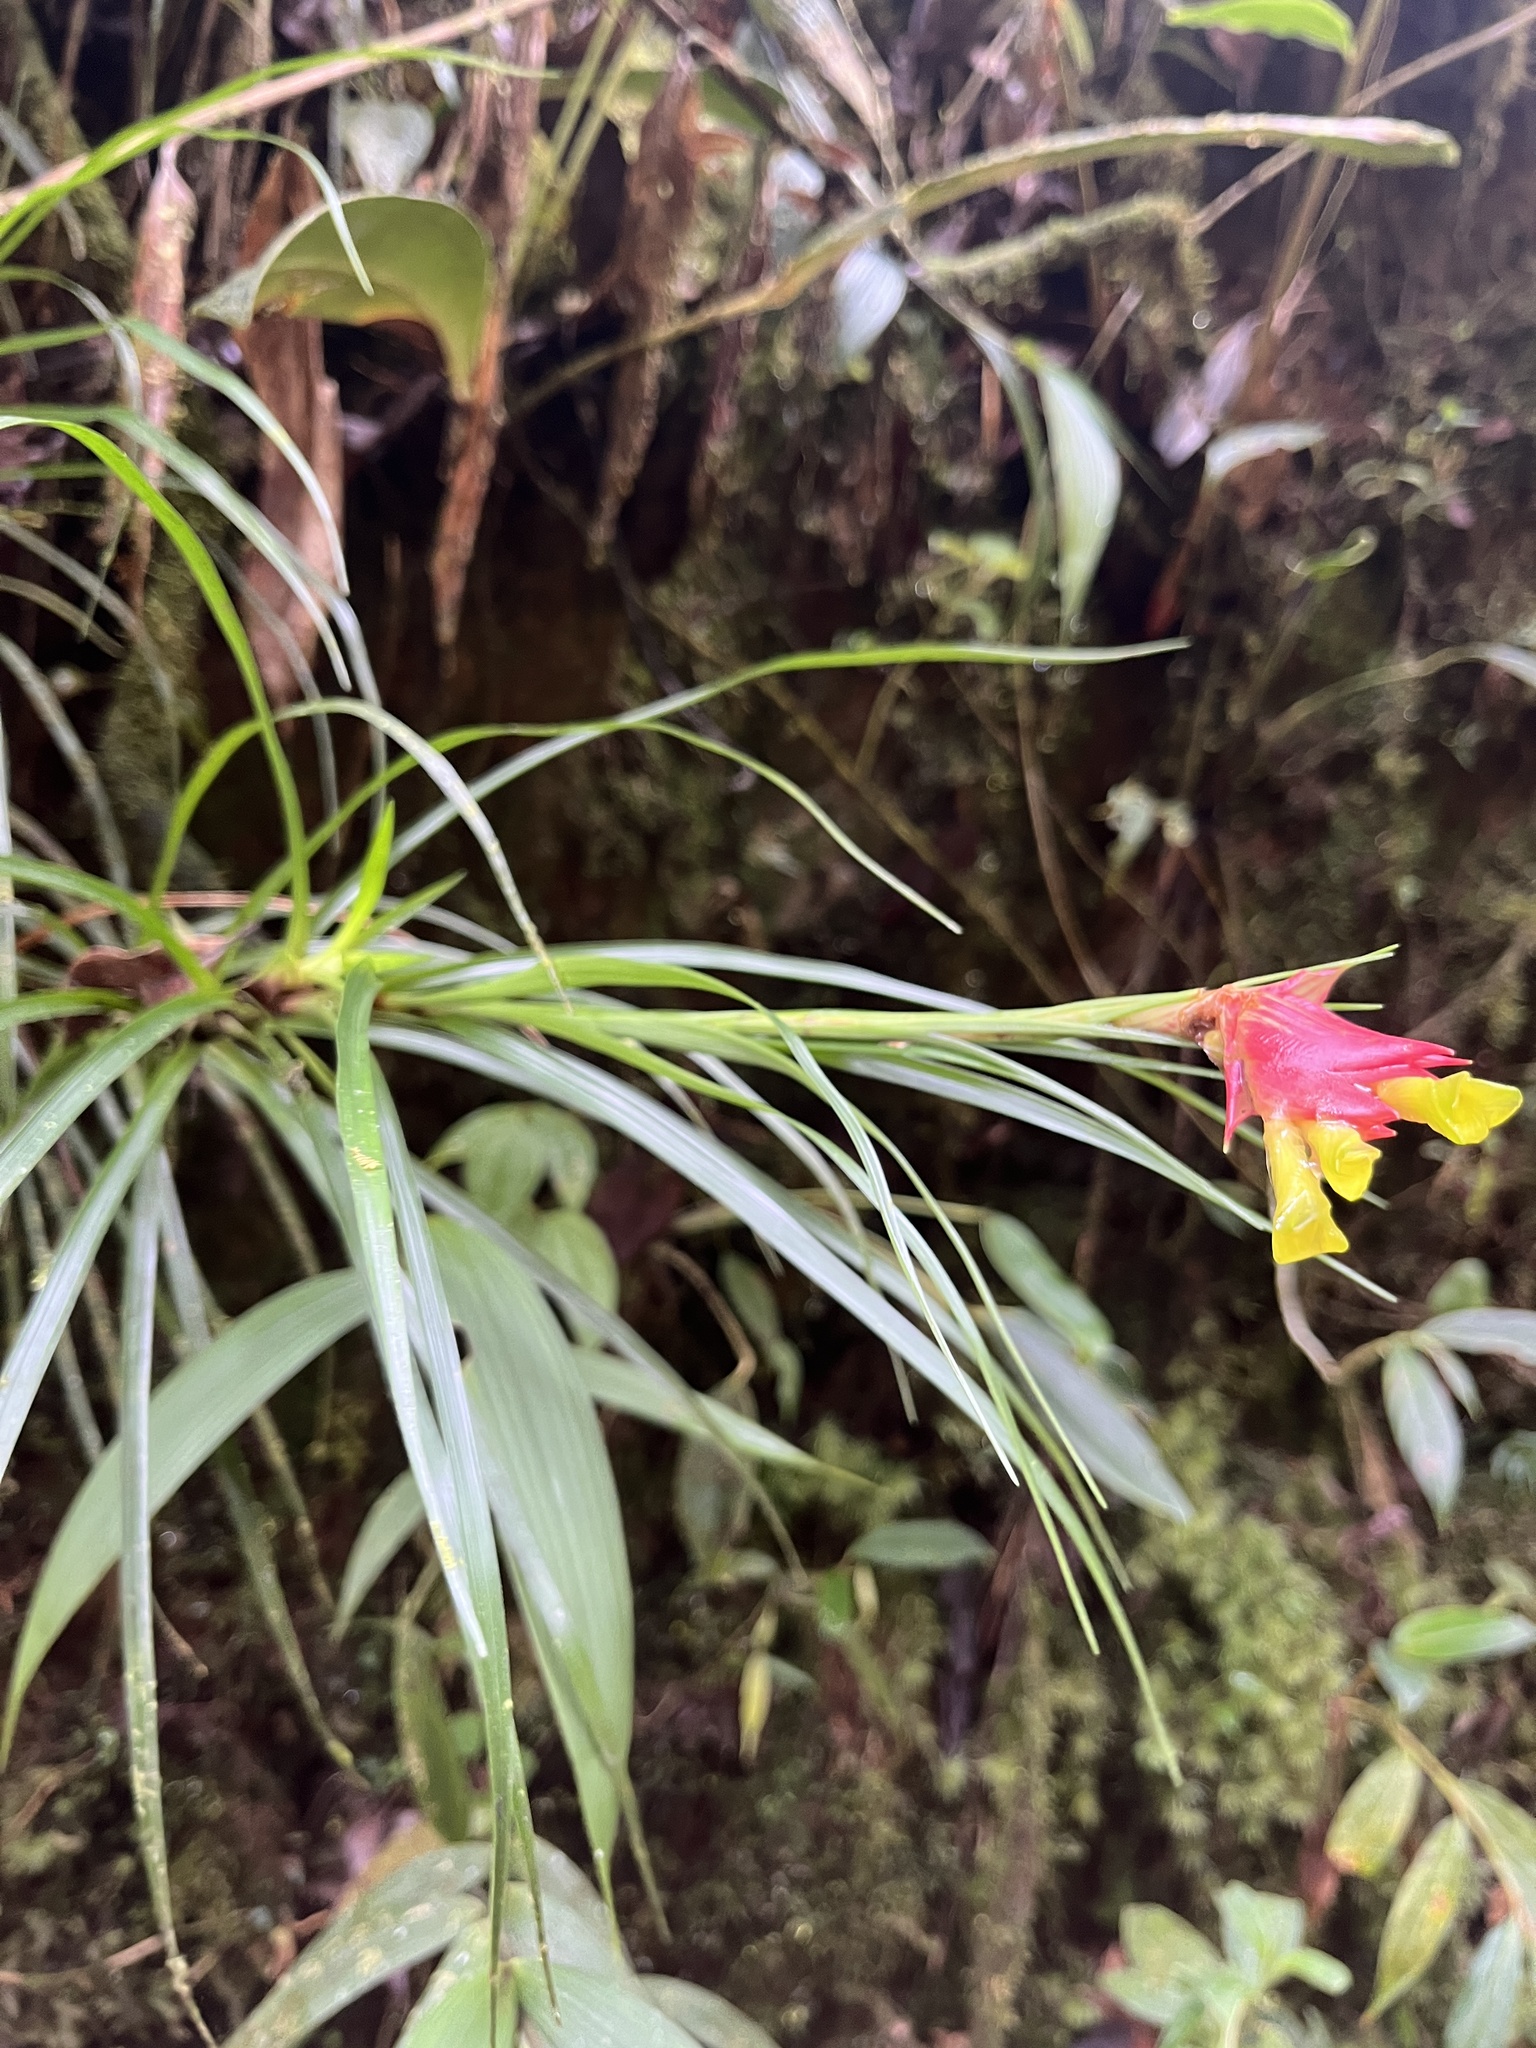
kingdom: Plantae
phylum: Tracheophyta
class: Liliopsida
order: Poales
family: Bromeliaceae
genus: Guzmania
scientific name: Guzmania pearcei
